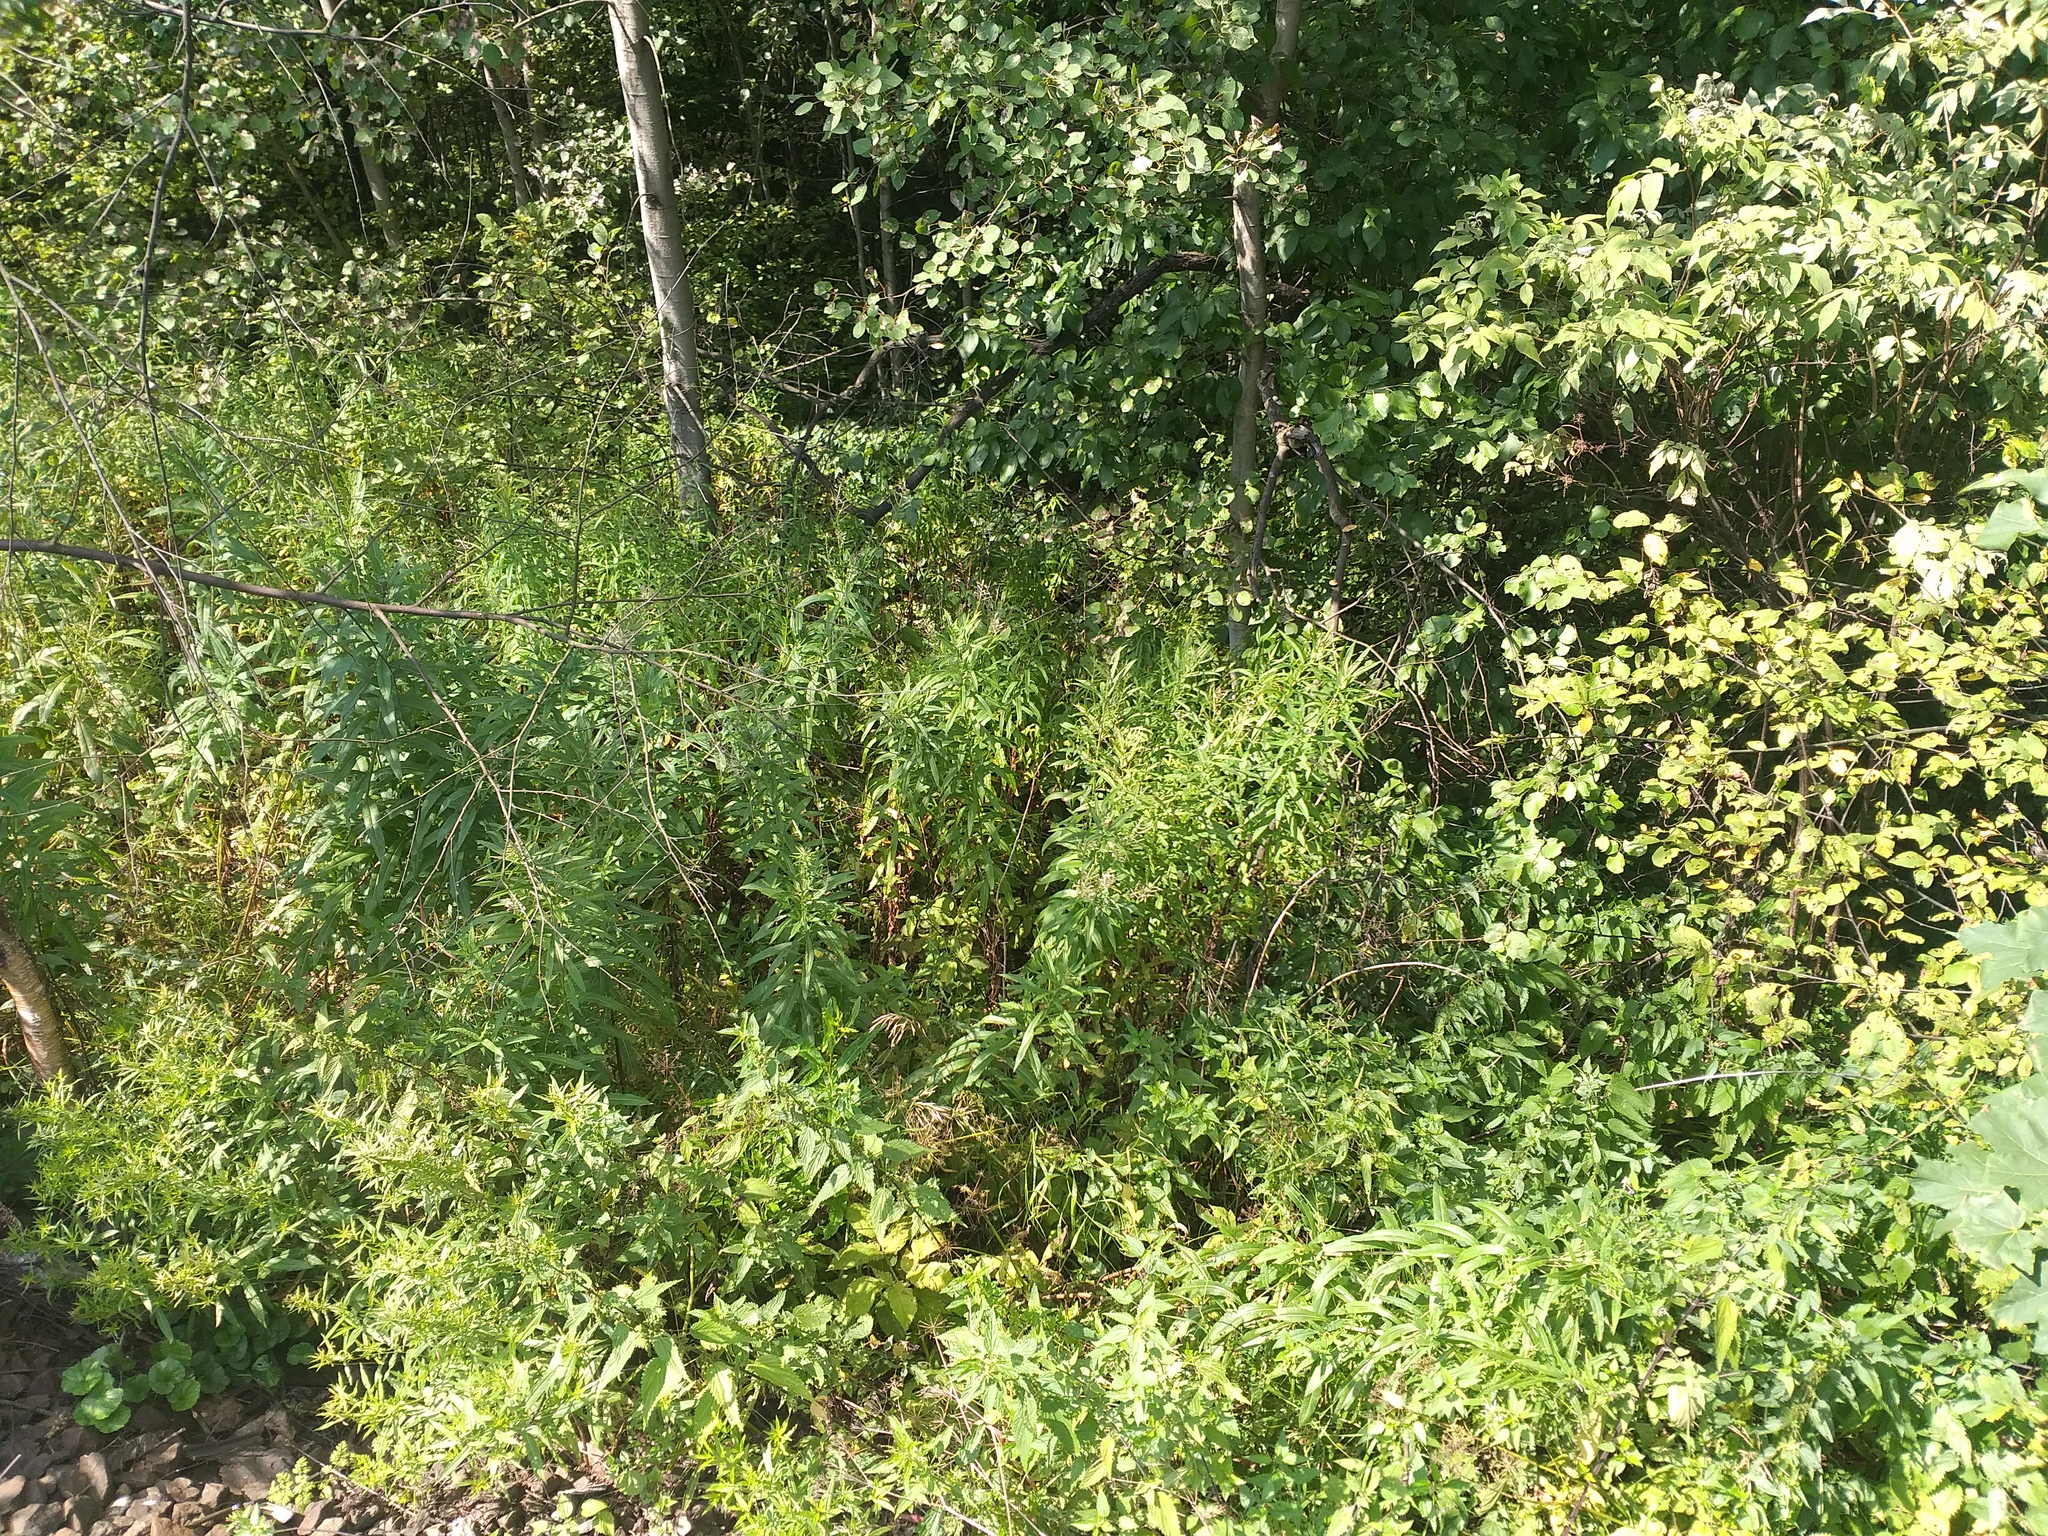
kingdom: Plantae
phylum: Tracheophyta
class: Magnoliopsida
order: Myrtales
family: Onagraceae
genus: Chamaenerion
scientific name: Chamaenerion angustifolium
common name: Fireweed
